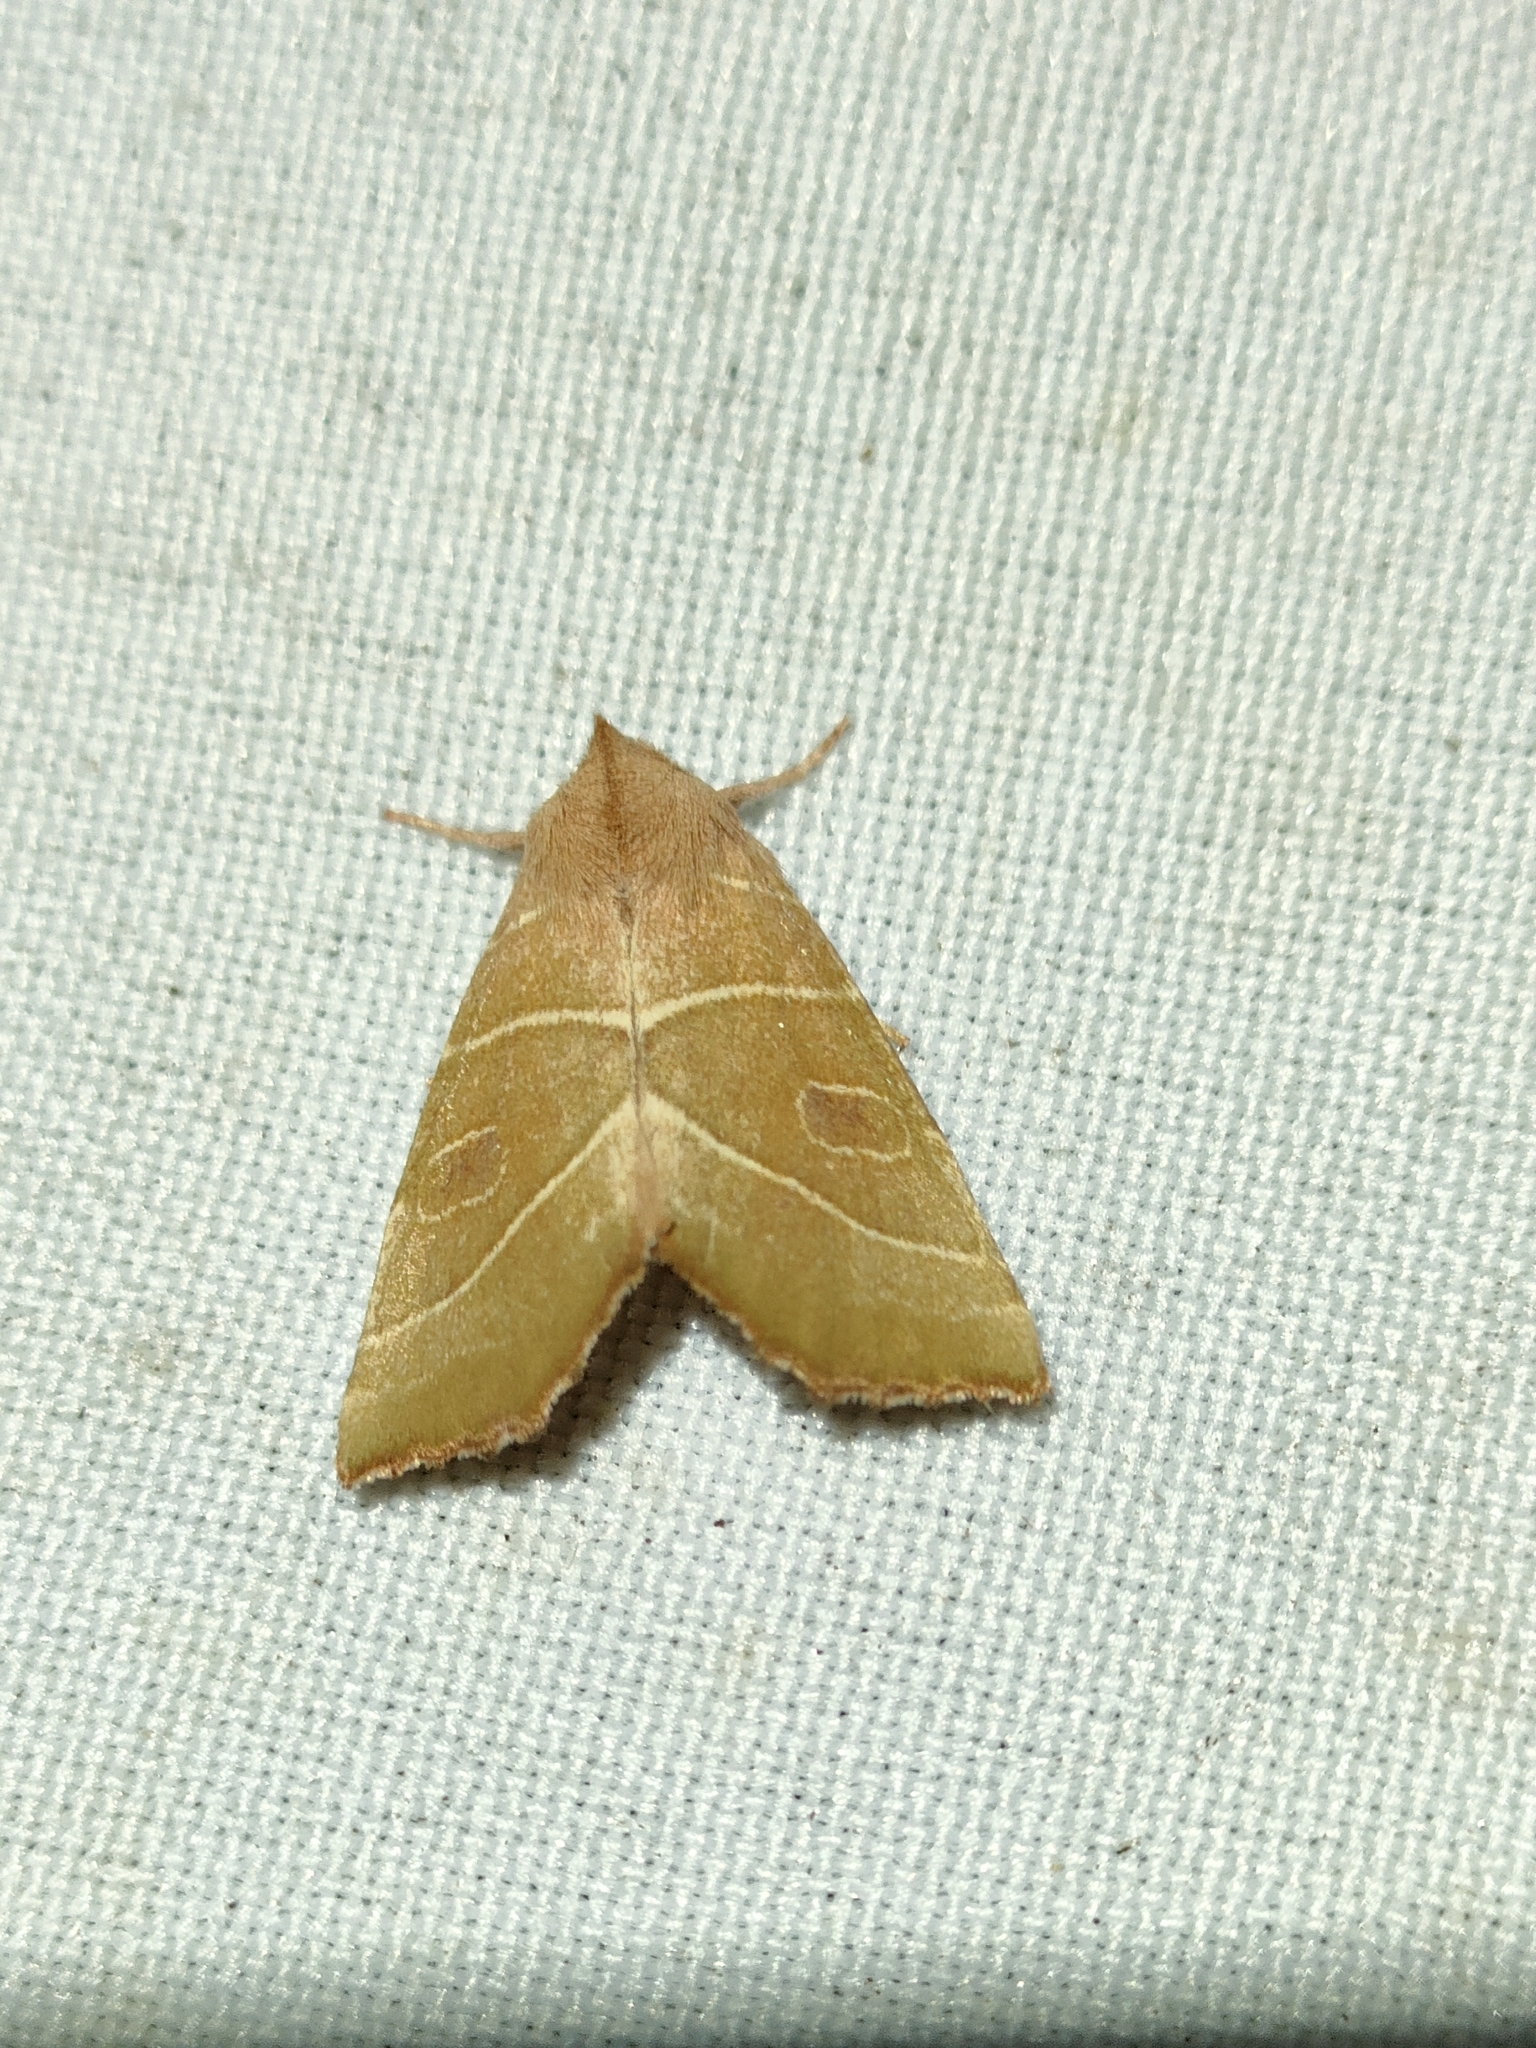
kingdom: Animalia
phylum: Arthropoda
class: Insecta
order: Lepidoptera
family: Noctuidae
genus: Atethmia
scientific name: Atethmia algirica
